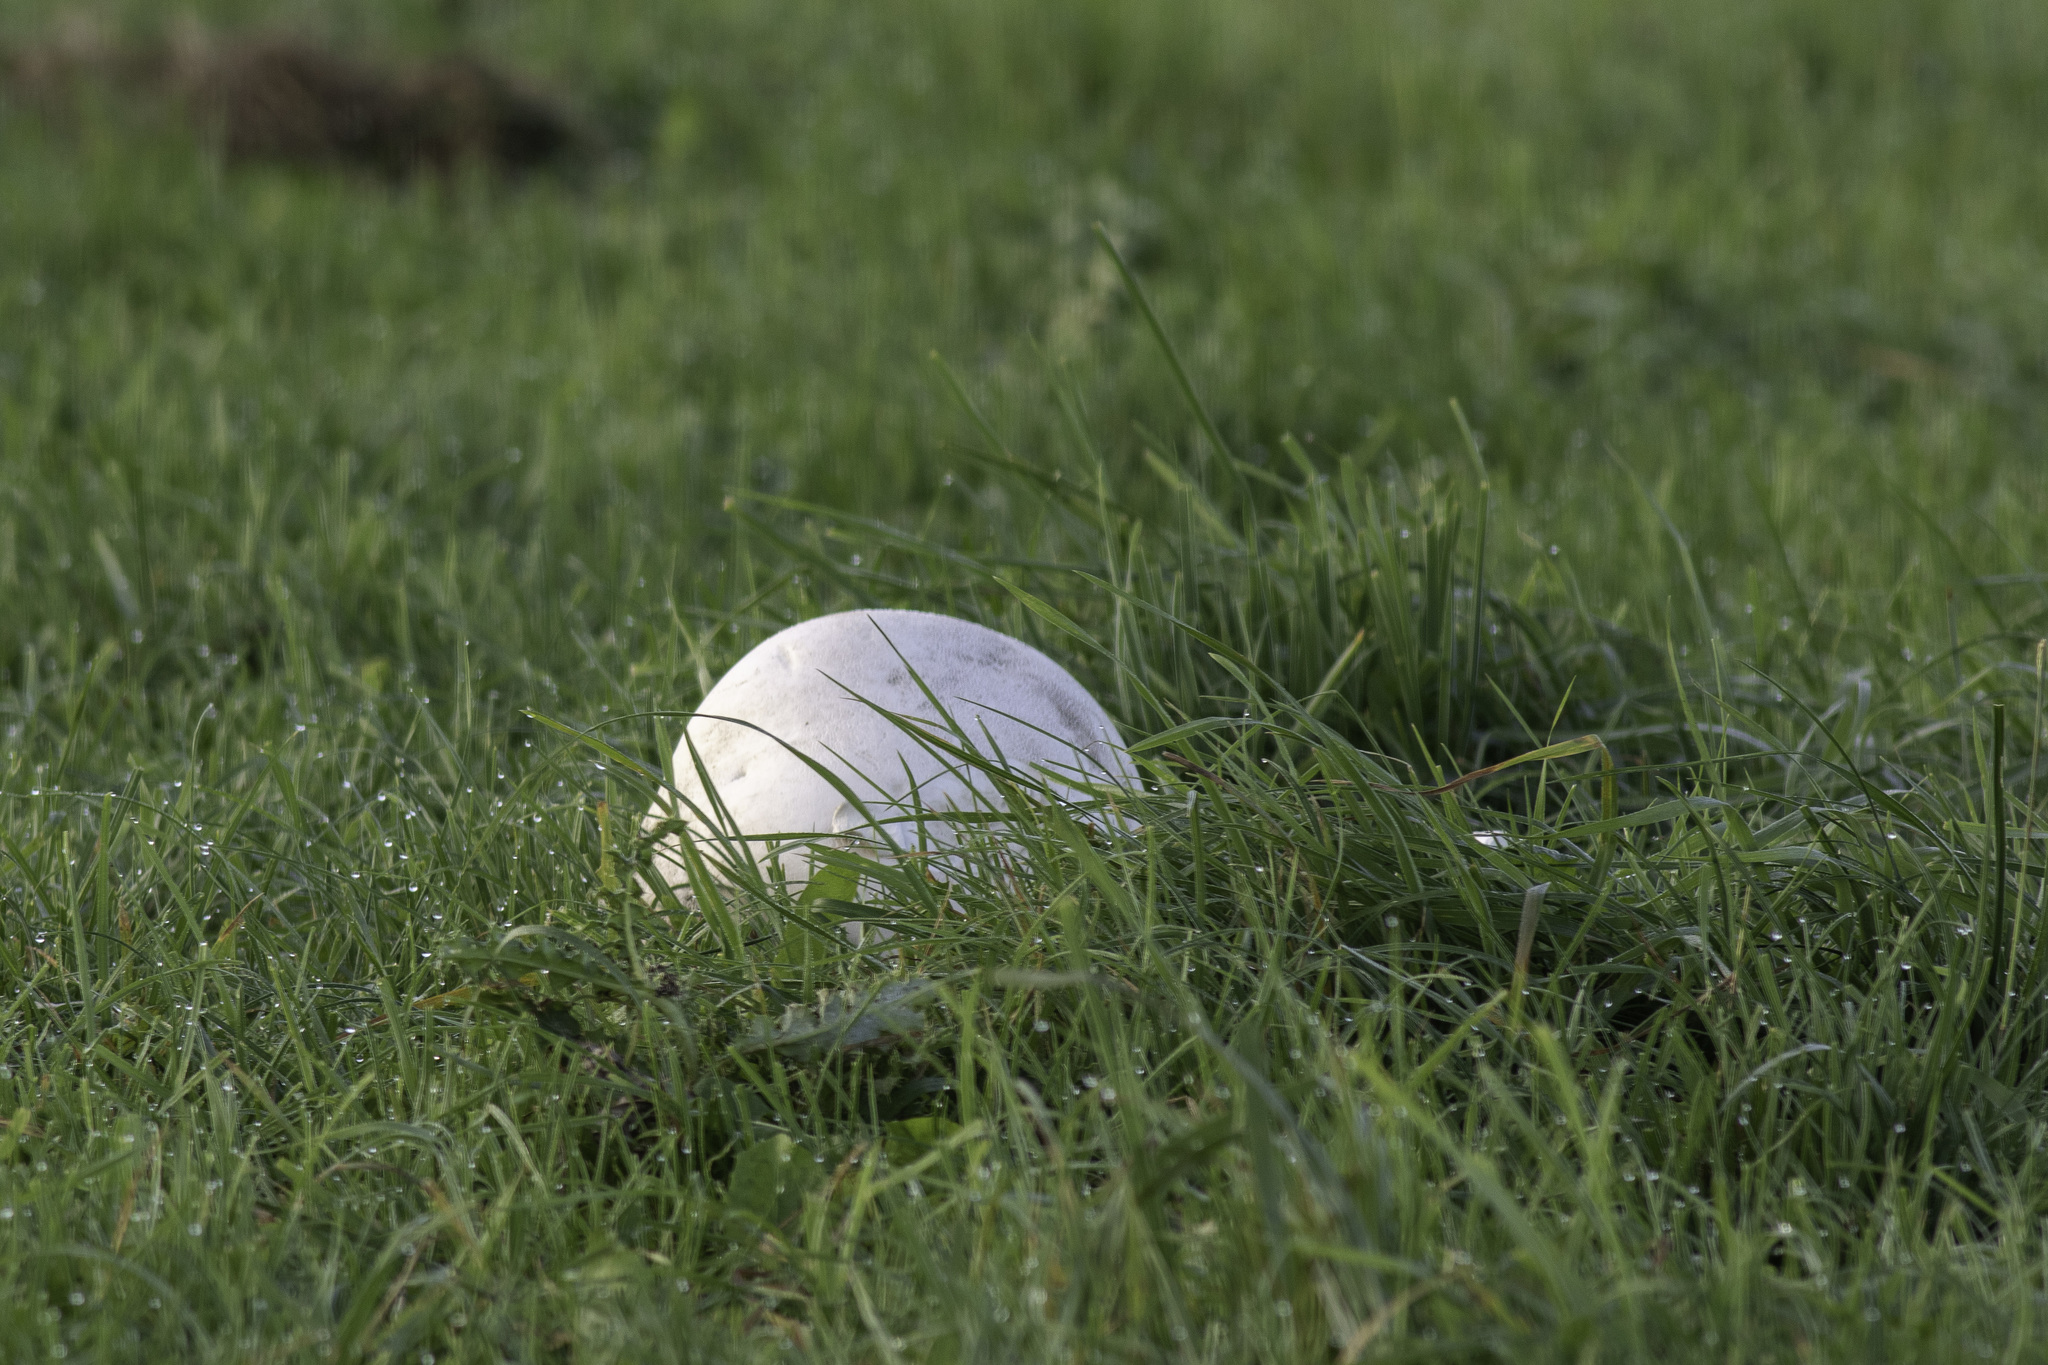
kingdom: Fungi
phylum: Basidiomycota
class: Agaricomycetes
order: Agaricales
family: Lycoperdaceae
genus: Calvatia
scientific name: Calvatia gigantea
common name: Giant puffball
